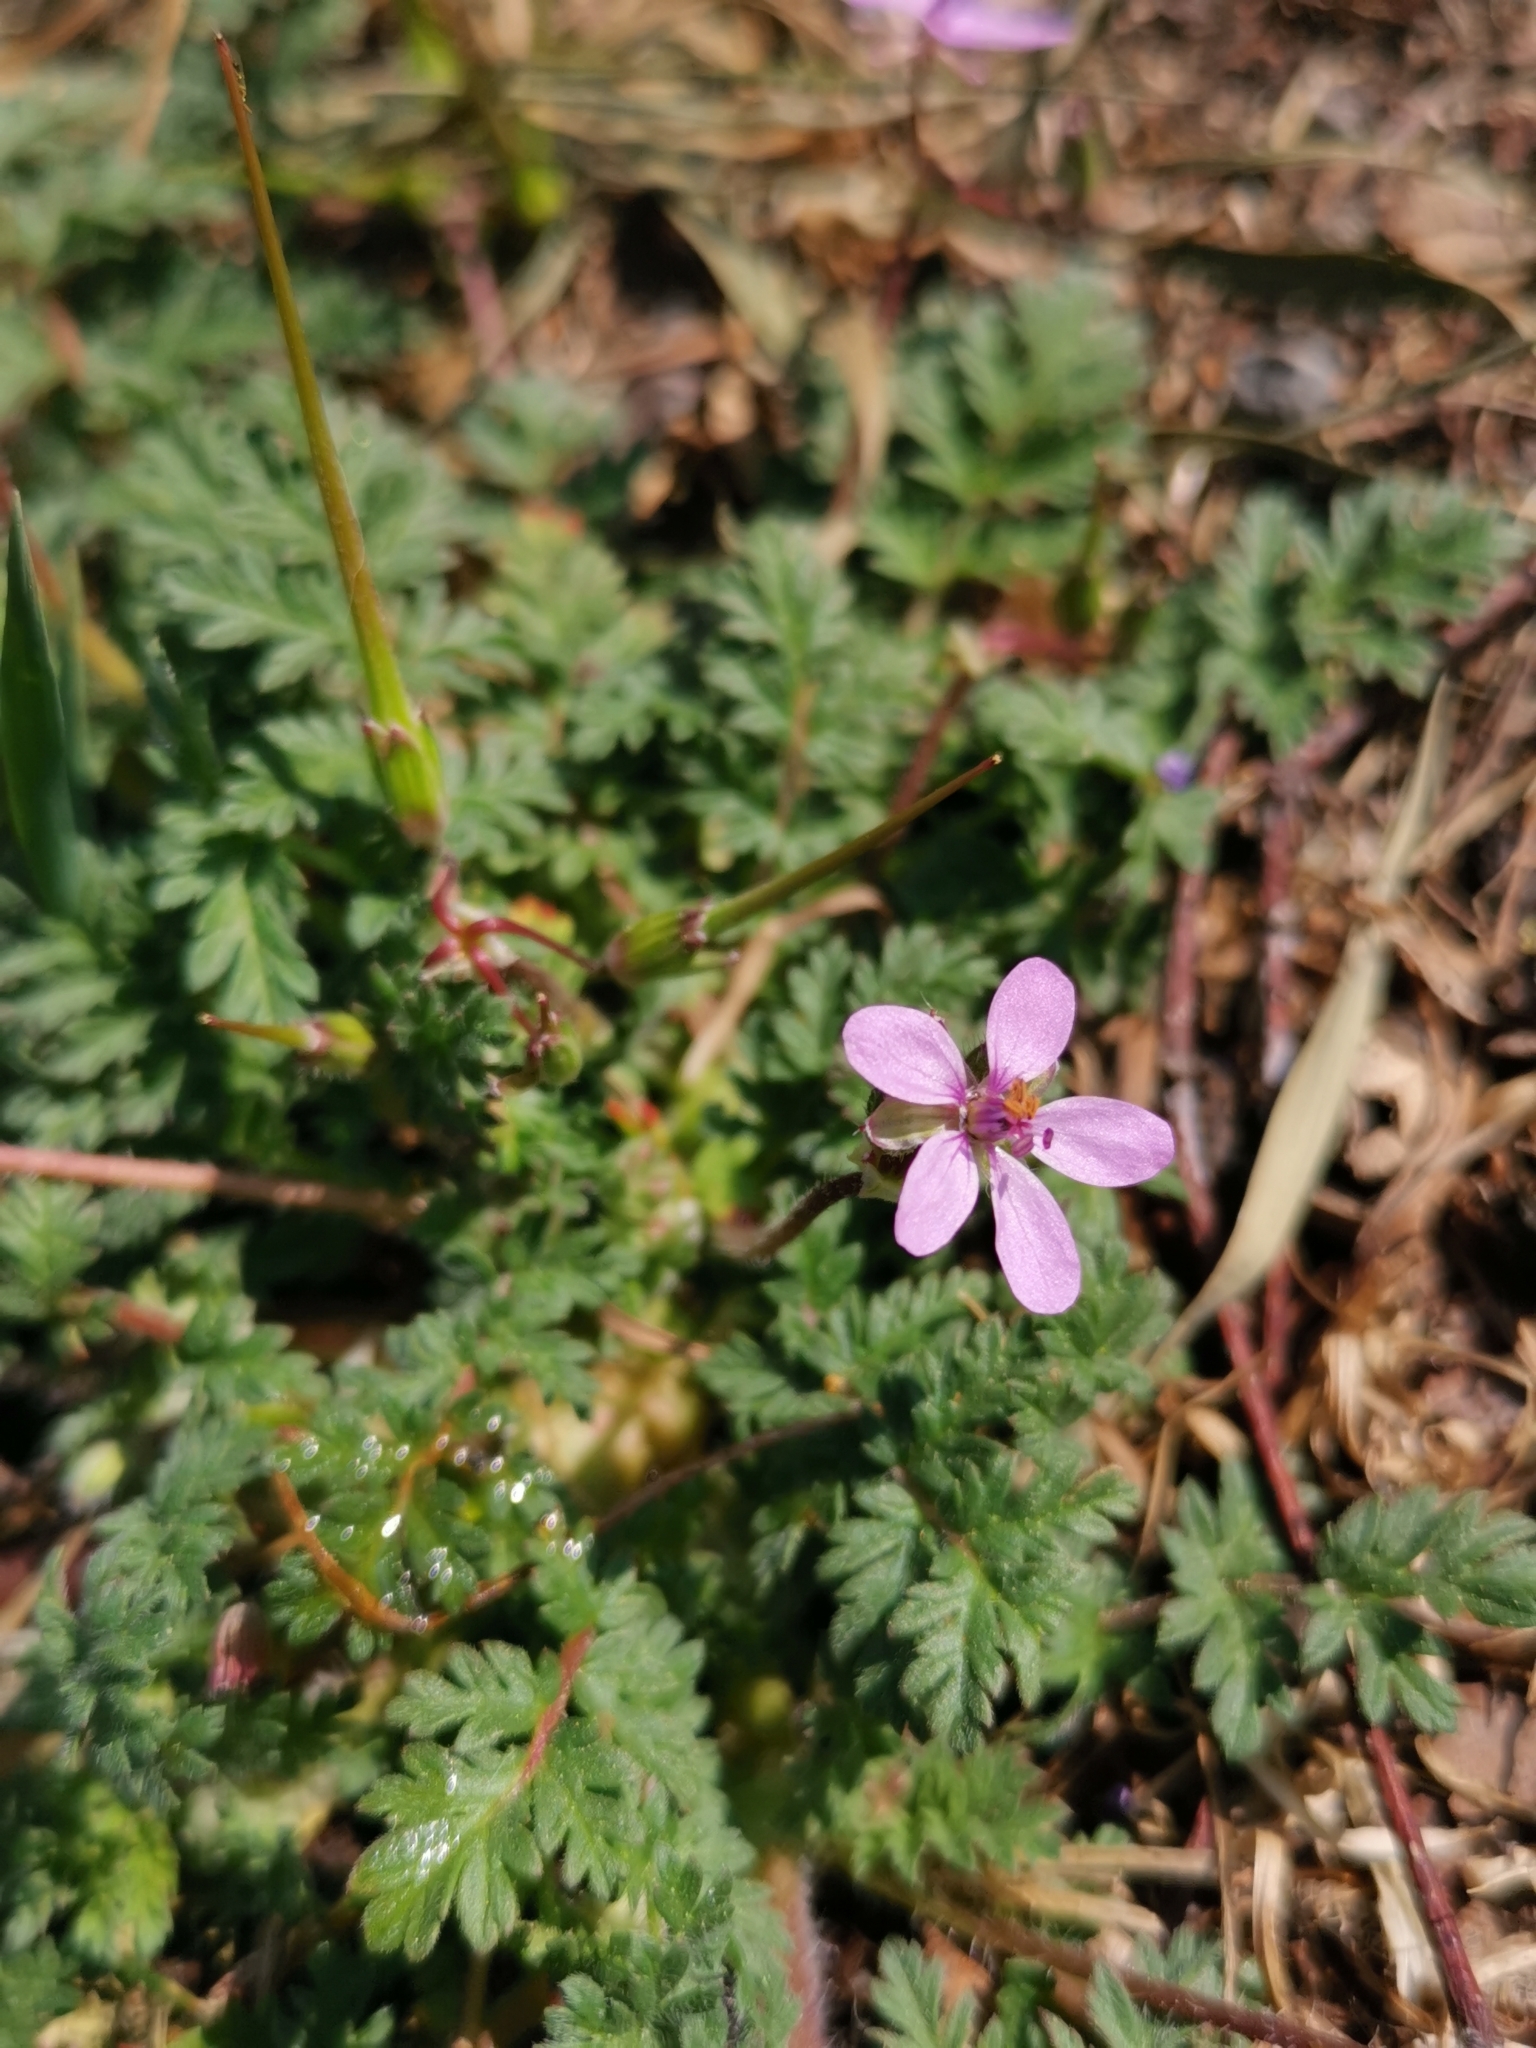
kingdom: Plantae
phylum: Tracheophyta
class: Magnoliopsida
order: Geraniales
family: Geraniaceae
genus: Erodium
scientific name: Erodium cicutarium
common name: Common stork's-bill
